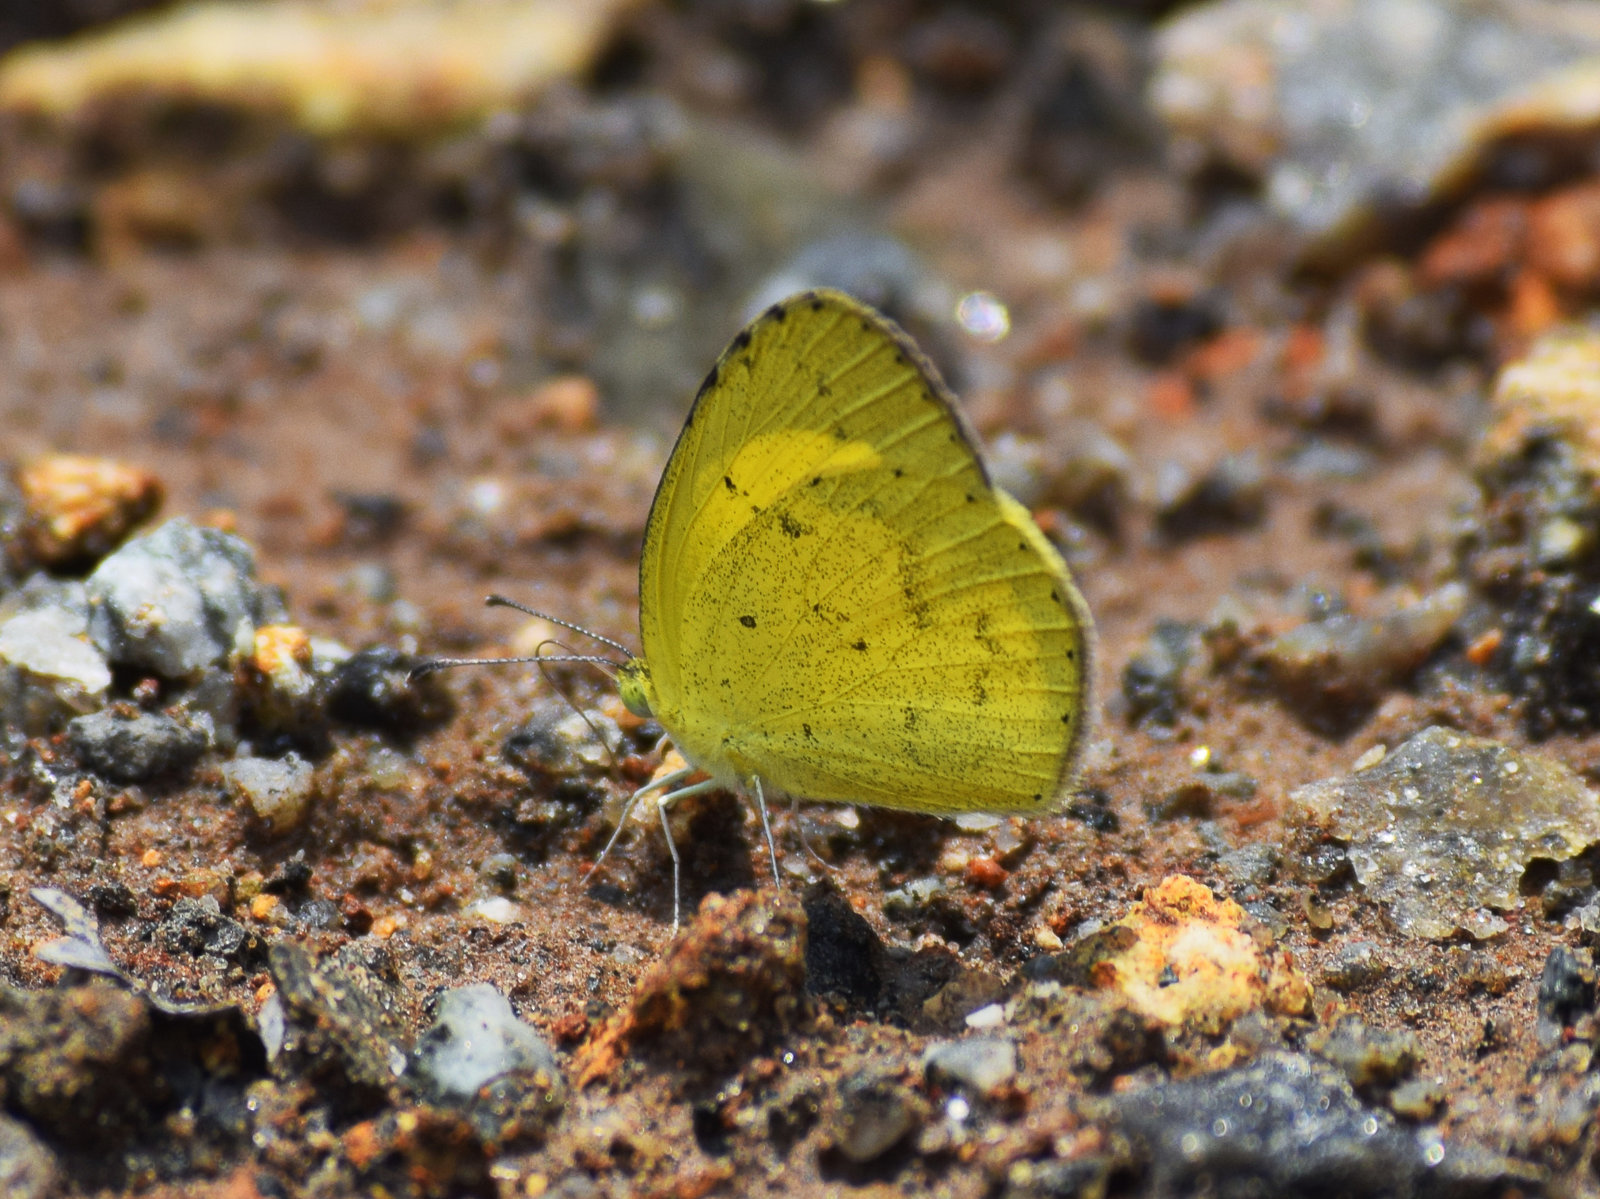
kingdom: Animalia
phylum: Arthropoda
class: Insecta
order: Lepidoptera
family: Pieridae
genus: Eurema
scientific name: Eurema brigitta
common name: Small grass yellow
